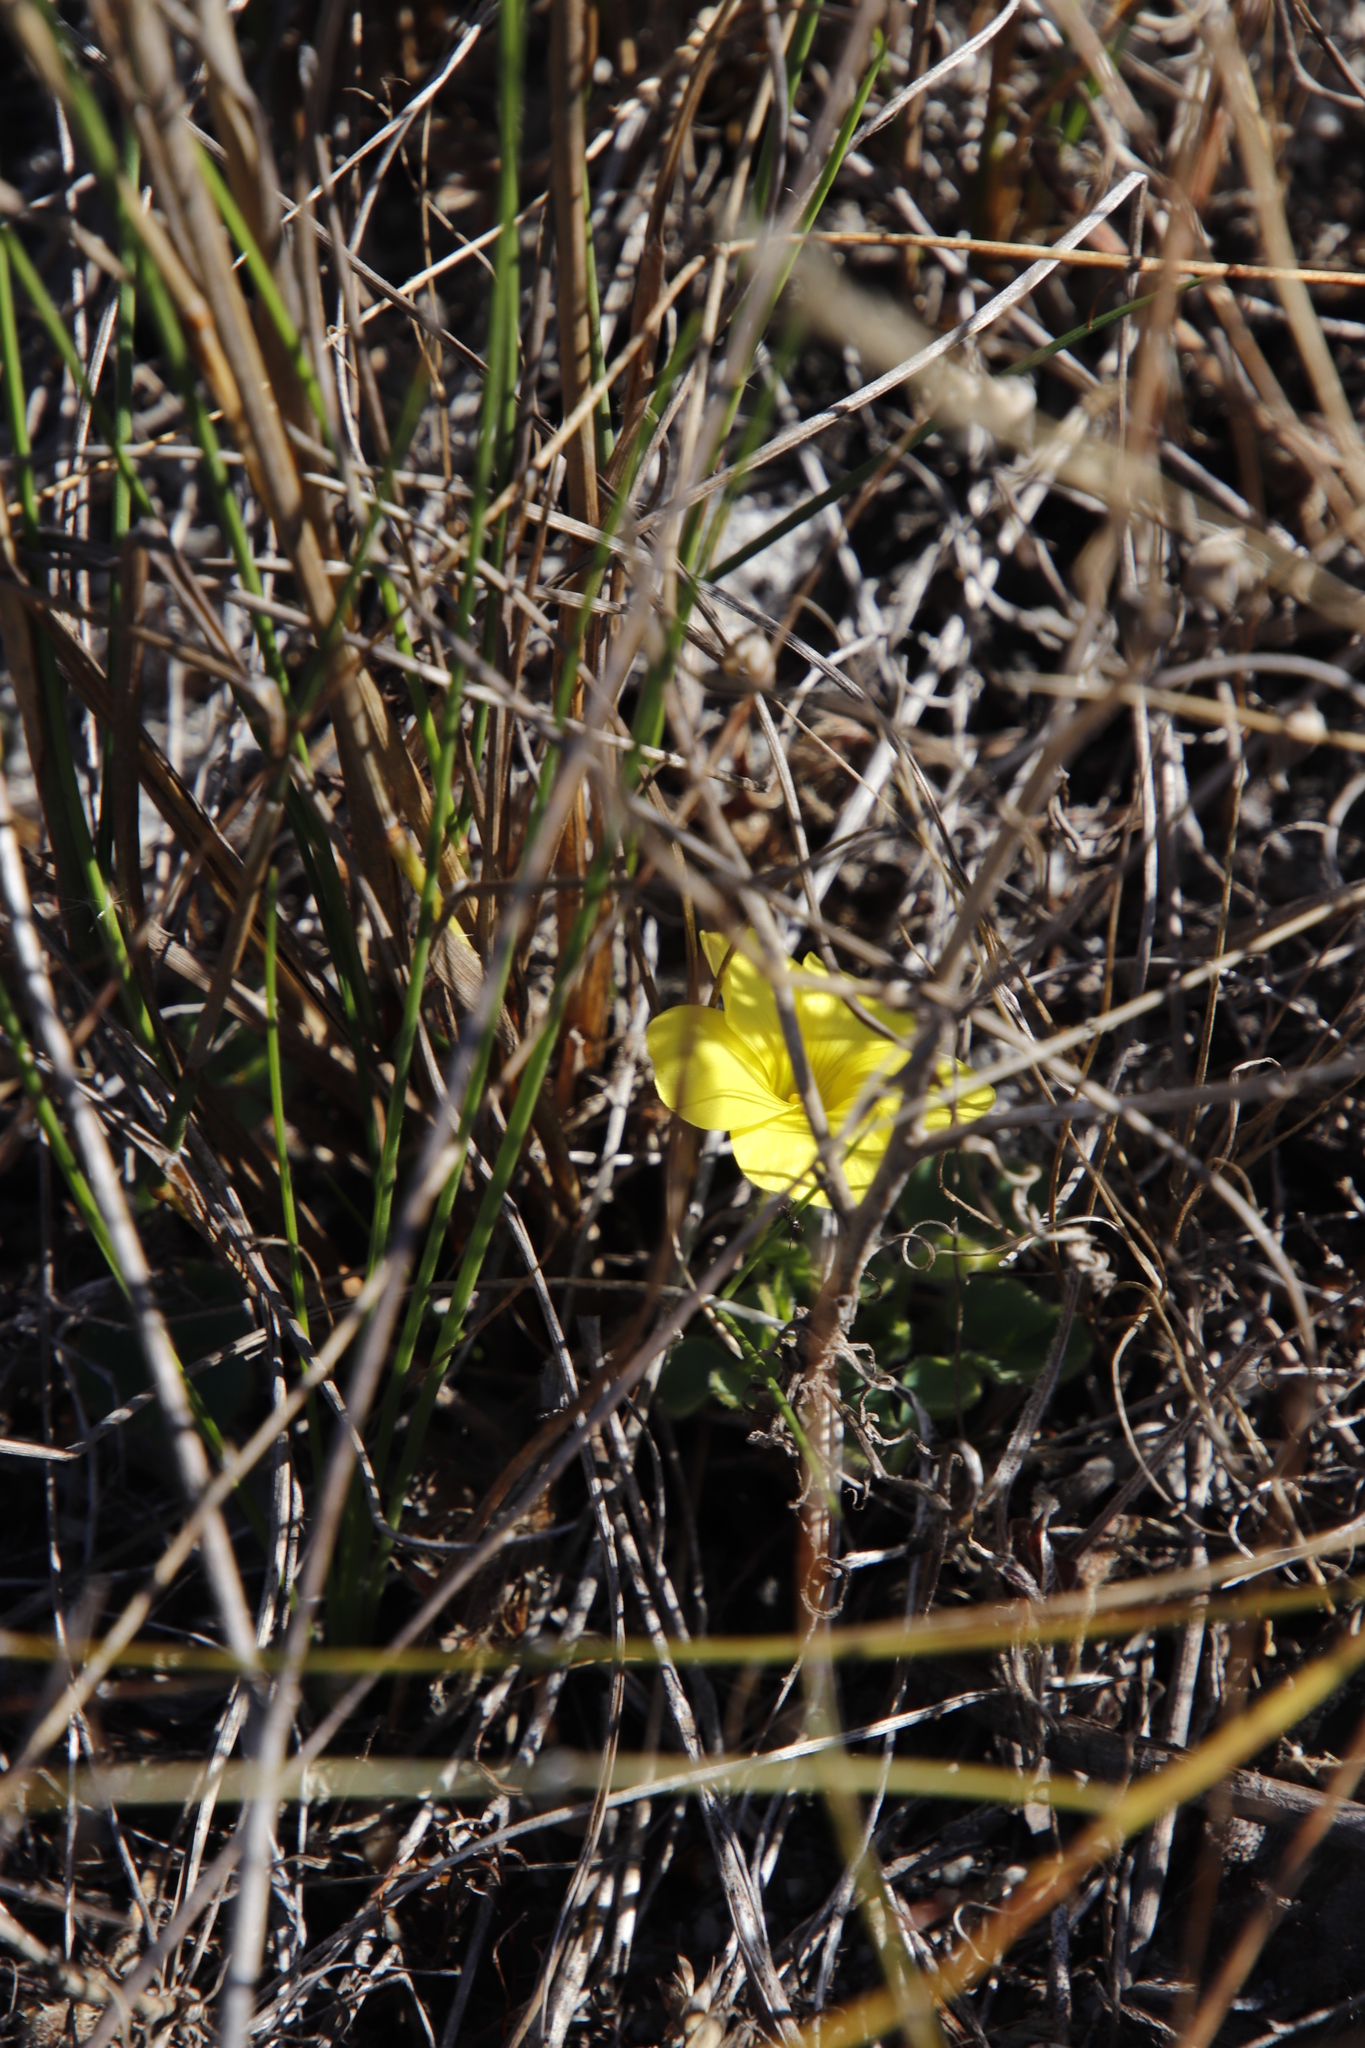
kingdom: Plantae
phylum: Tracheophyta
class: Magnoliopsida
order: Oxalidales
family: Oxalidaceae
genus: Oxalis
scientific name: Oxalis luteola
